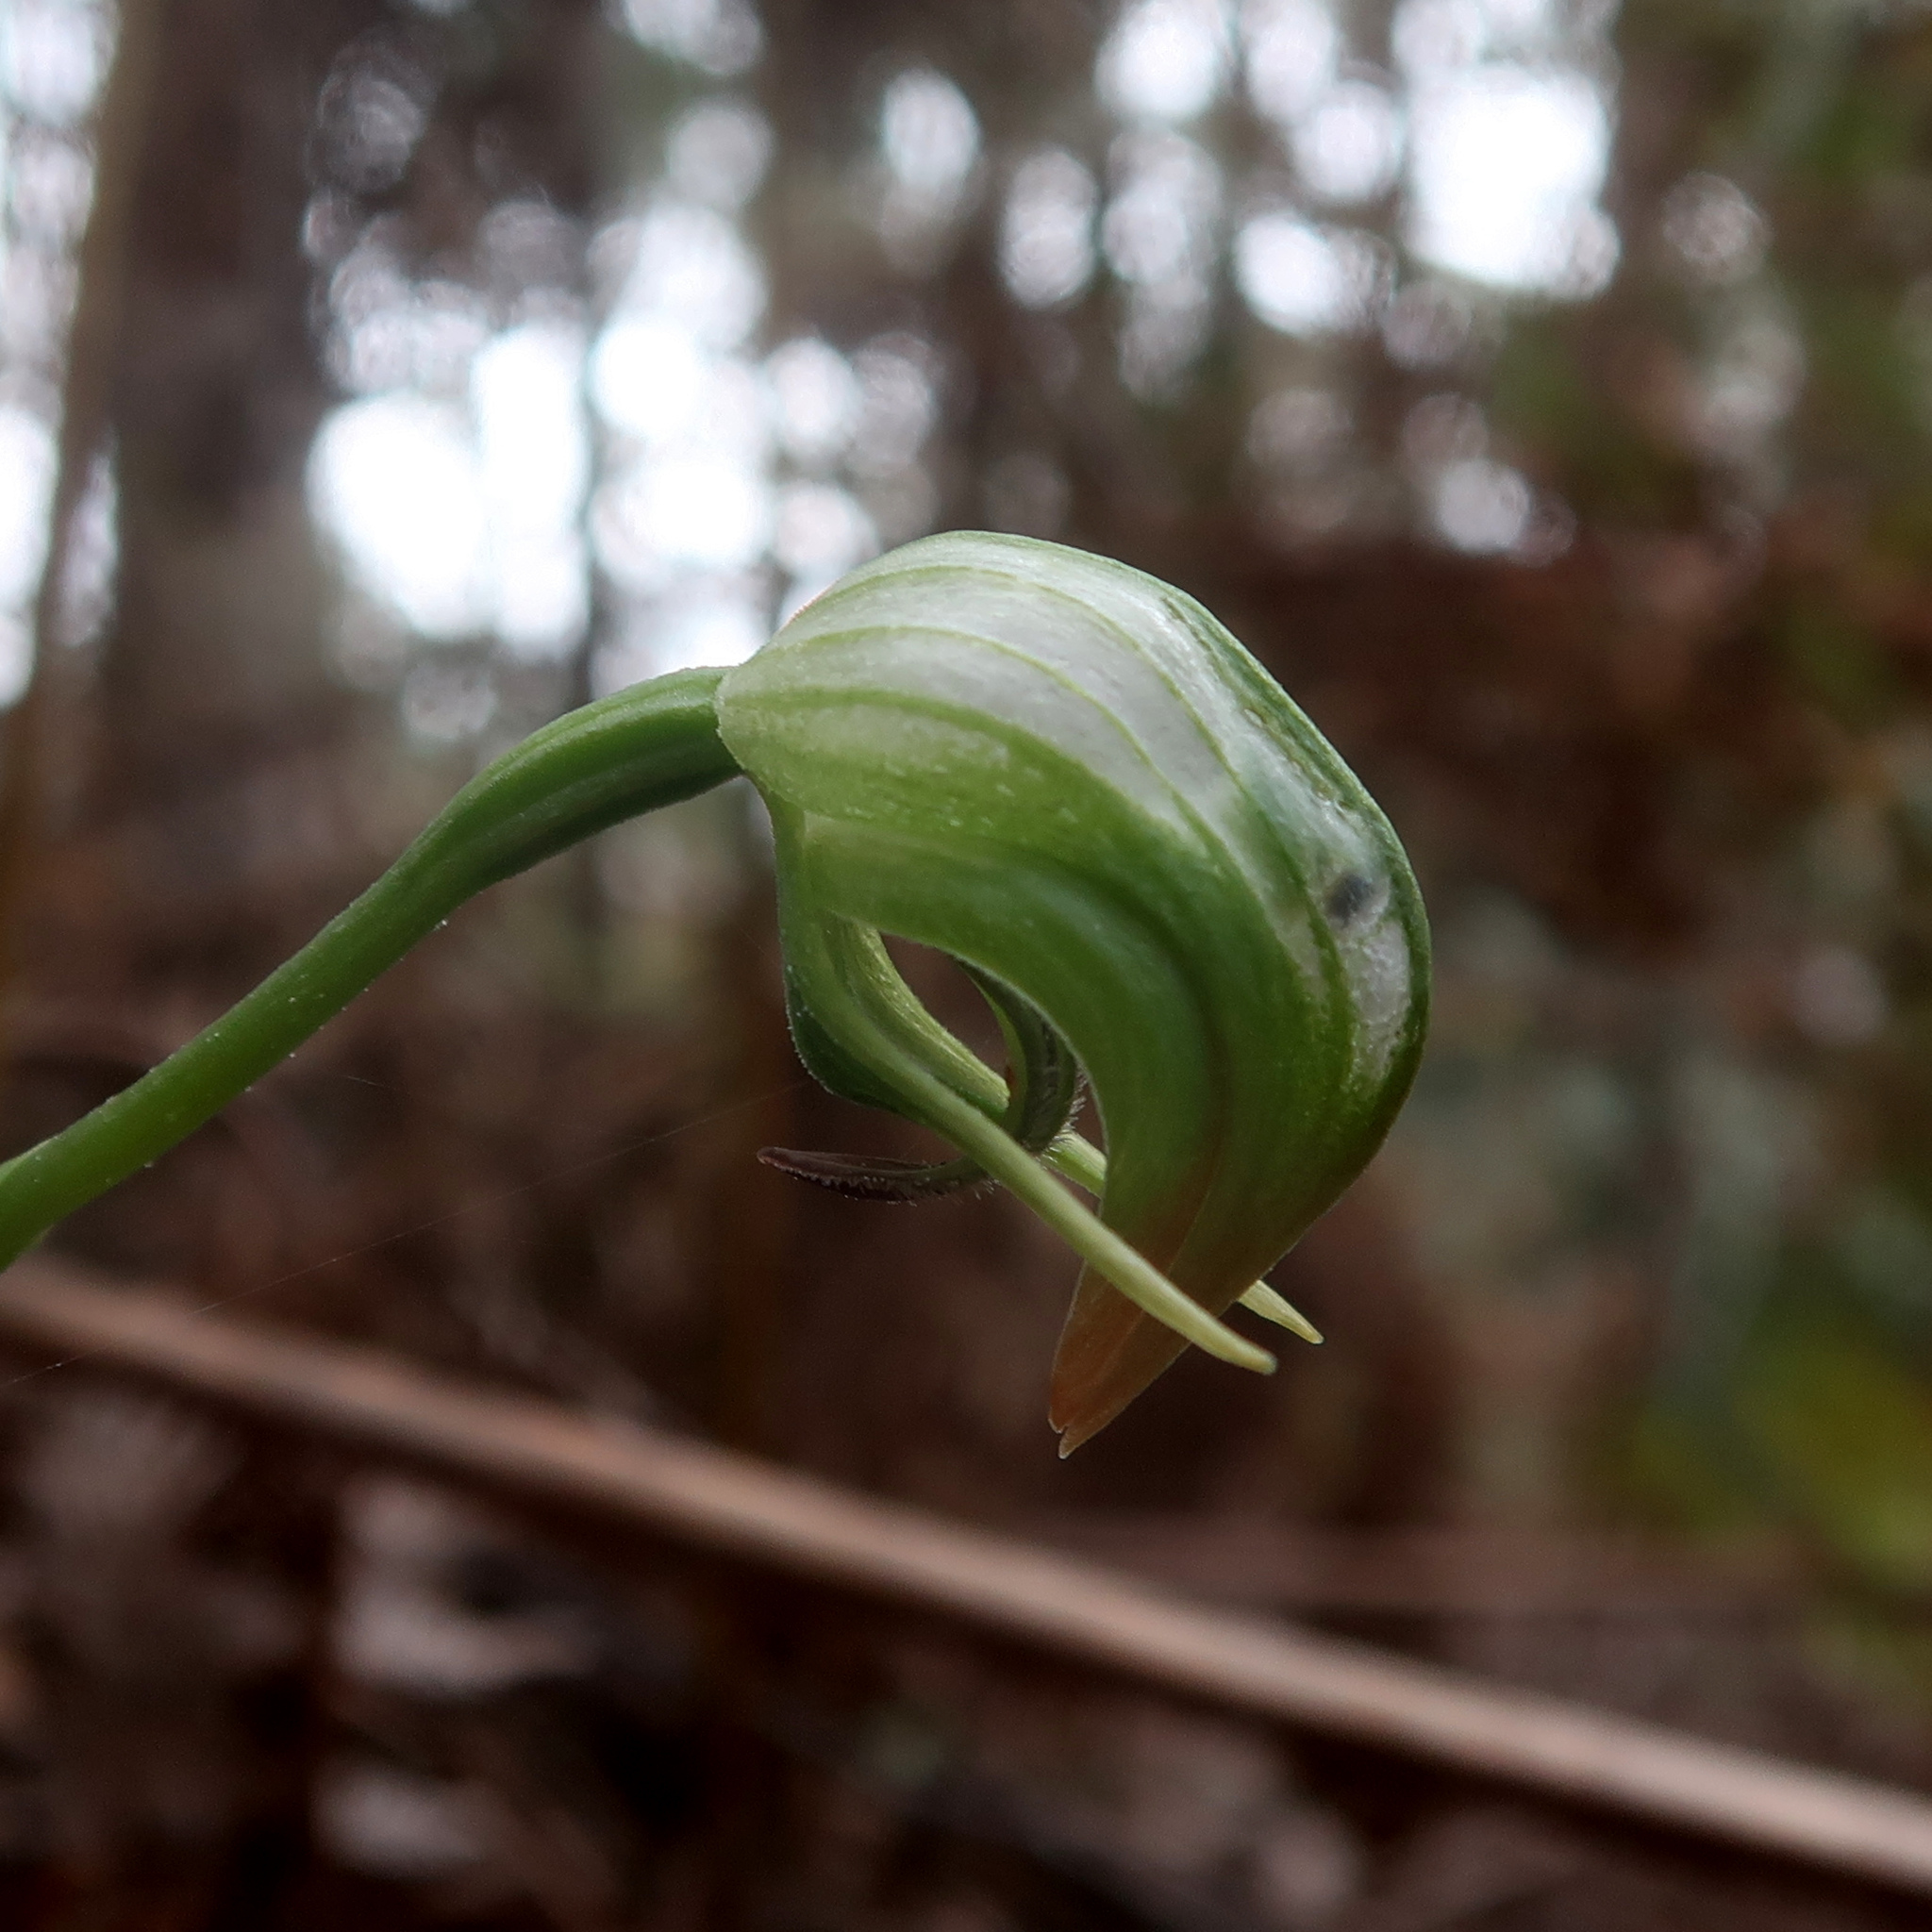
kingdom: Plantae
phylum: Tracheophyta
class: Liliopsida
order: Asparagales
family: Orchidaceae
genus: Pterostylis
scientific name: Pterostylis nutans
